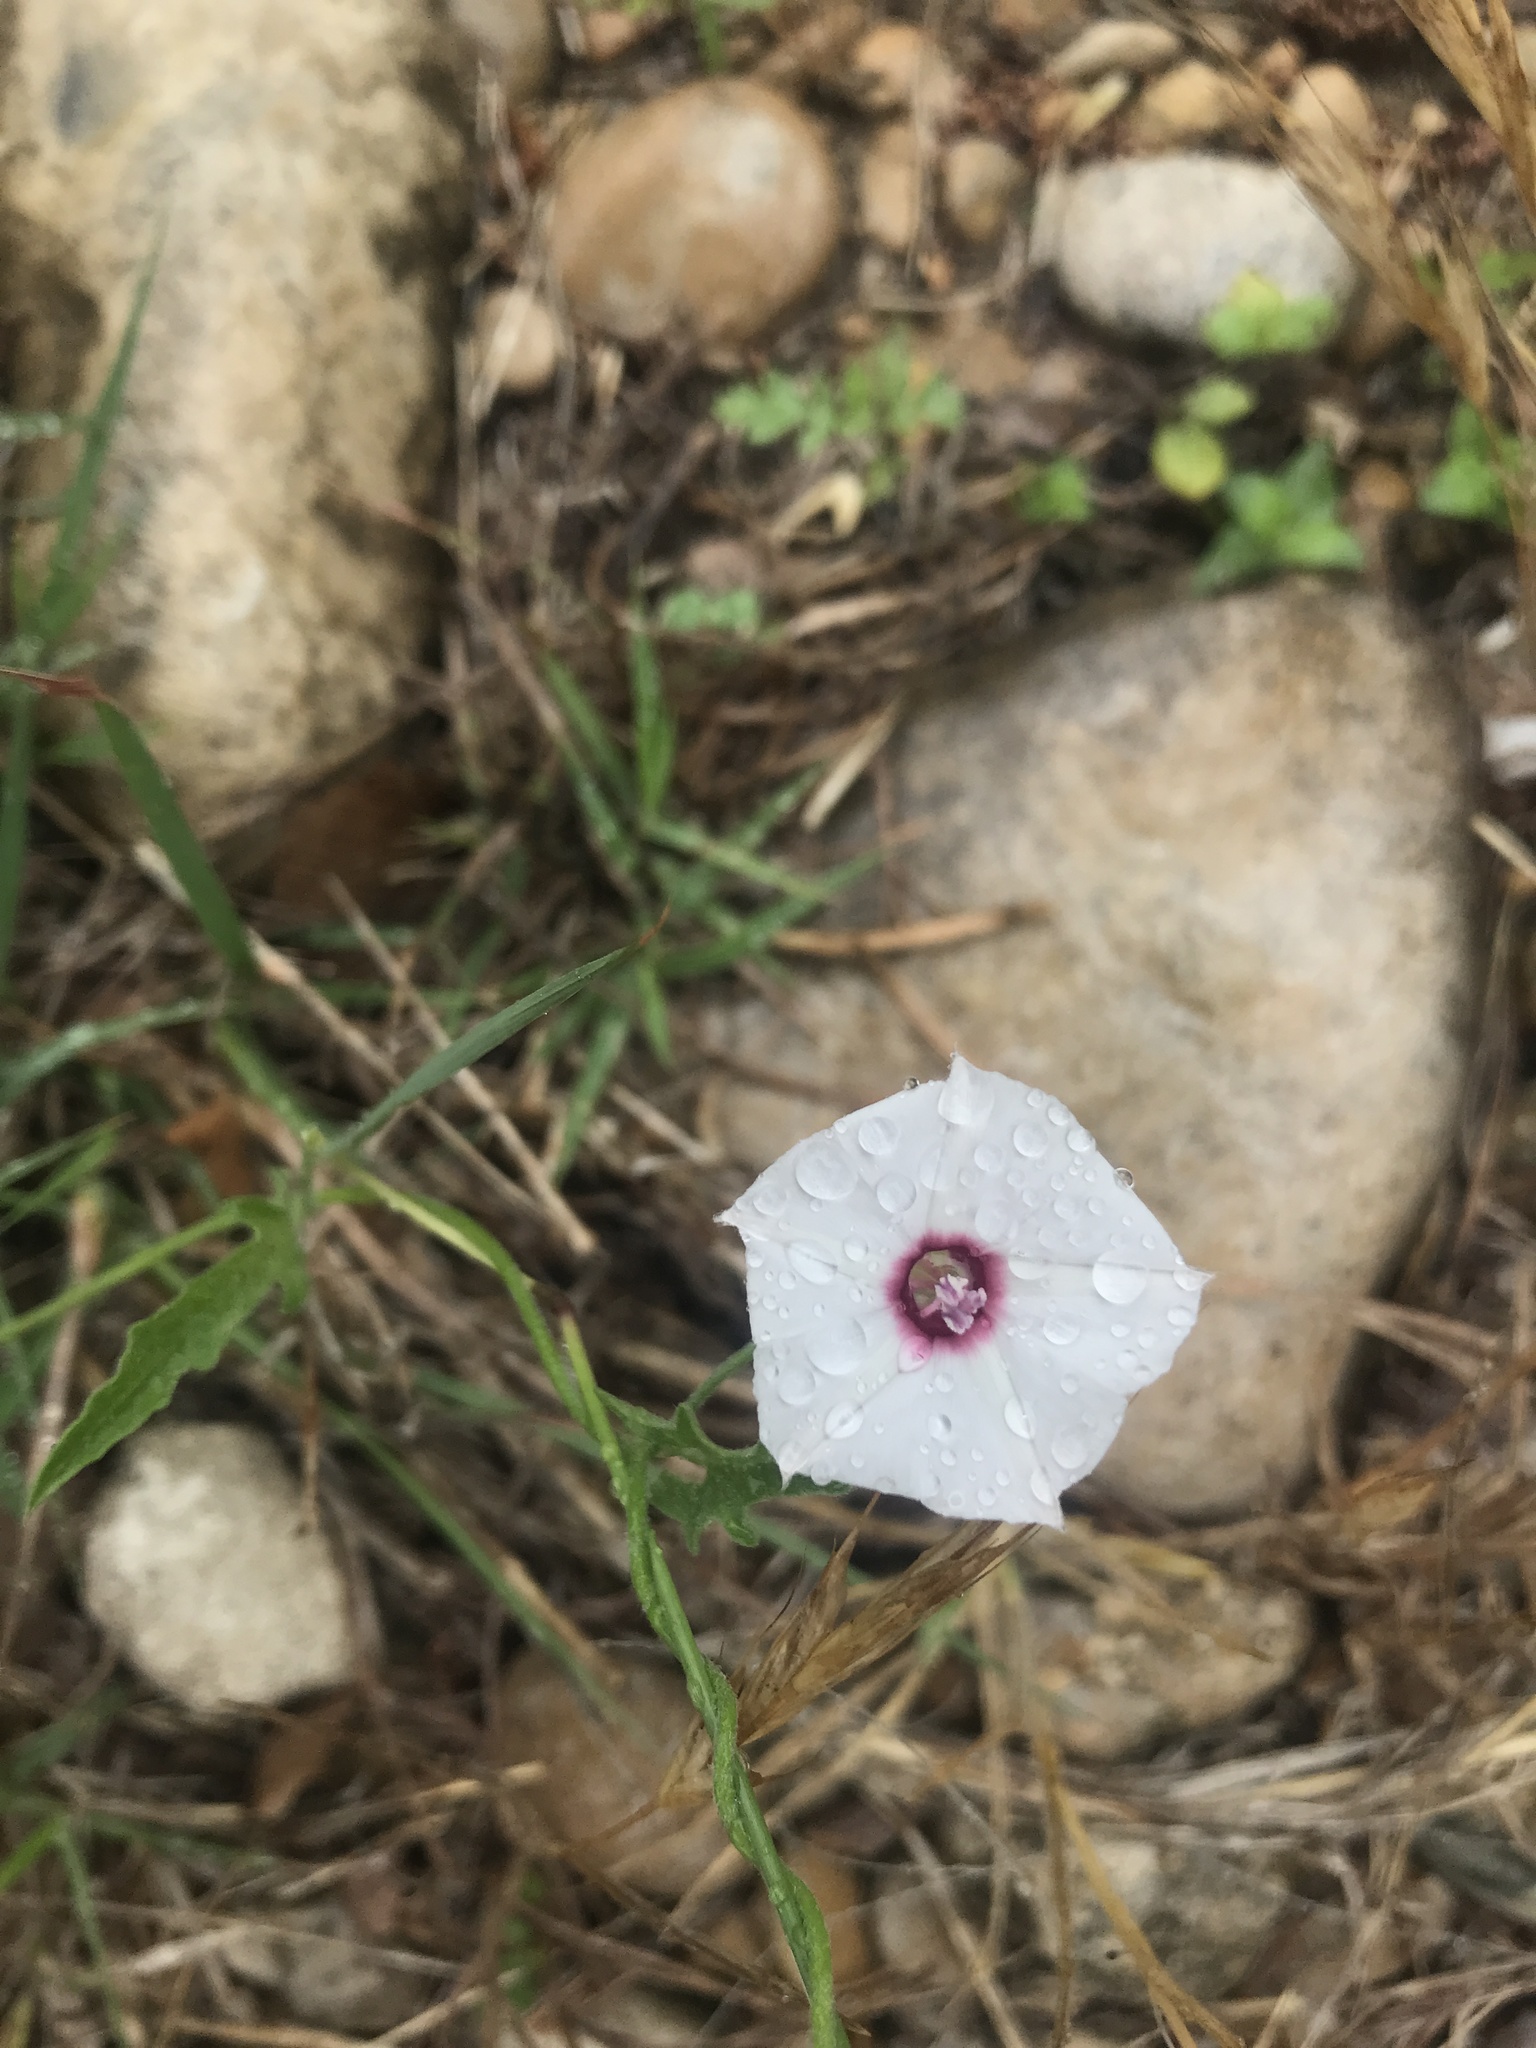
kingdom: Plantae
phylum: Tracheophyta
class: Magnoliopsida
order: Solanales
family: Convolvulaceae
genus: Convolvulus
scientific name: Convolvulus equitans
